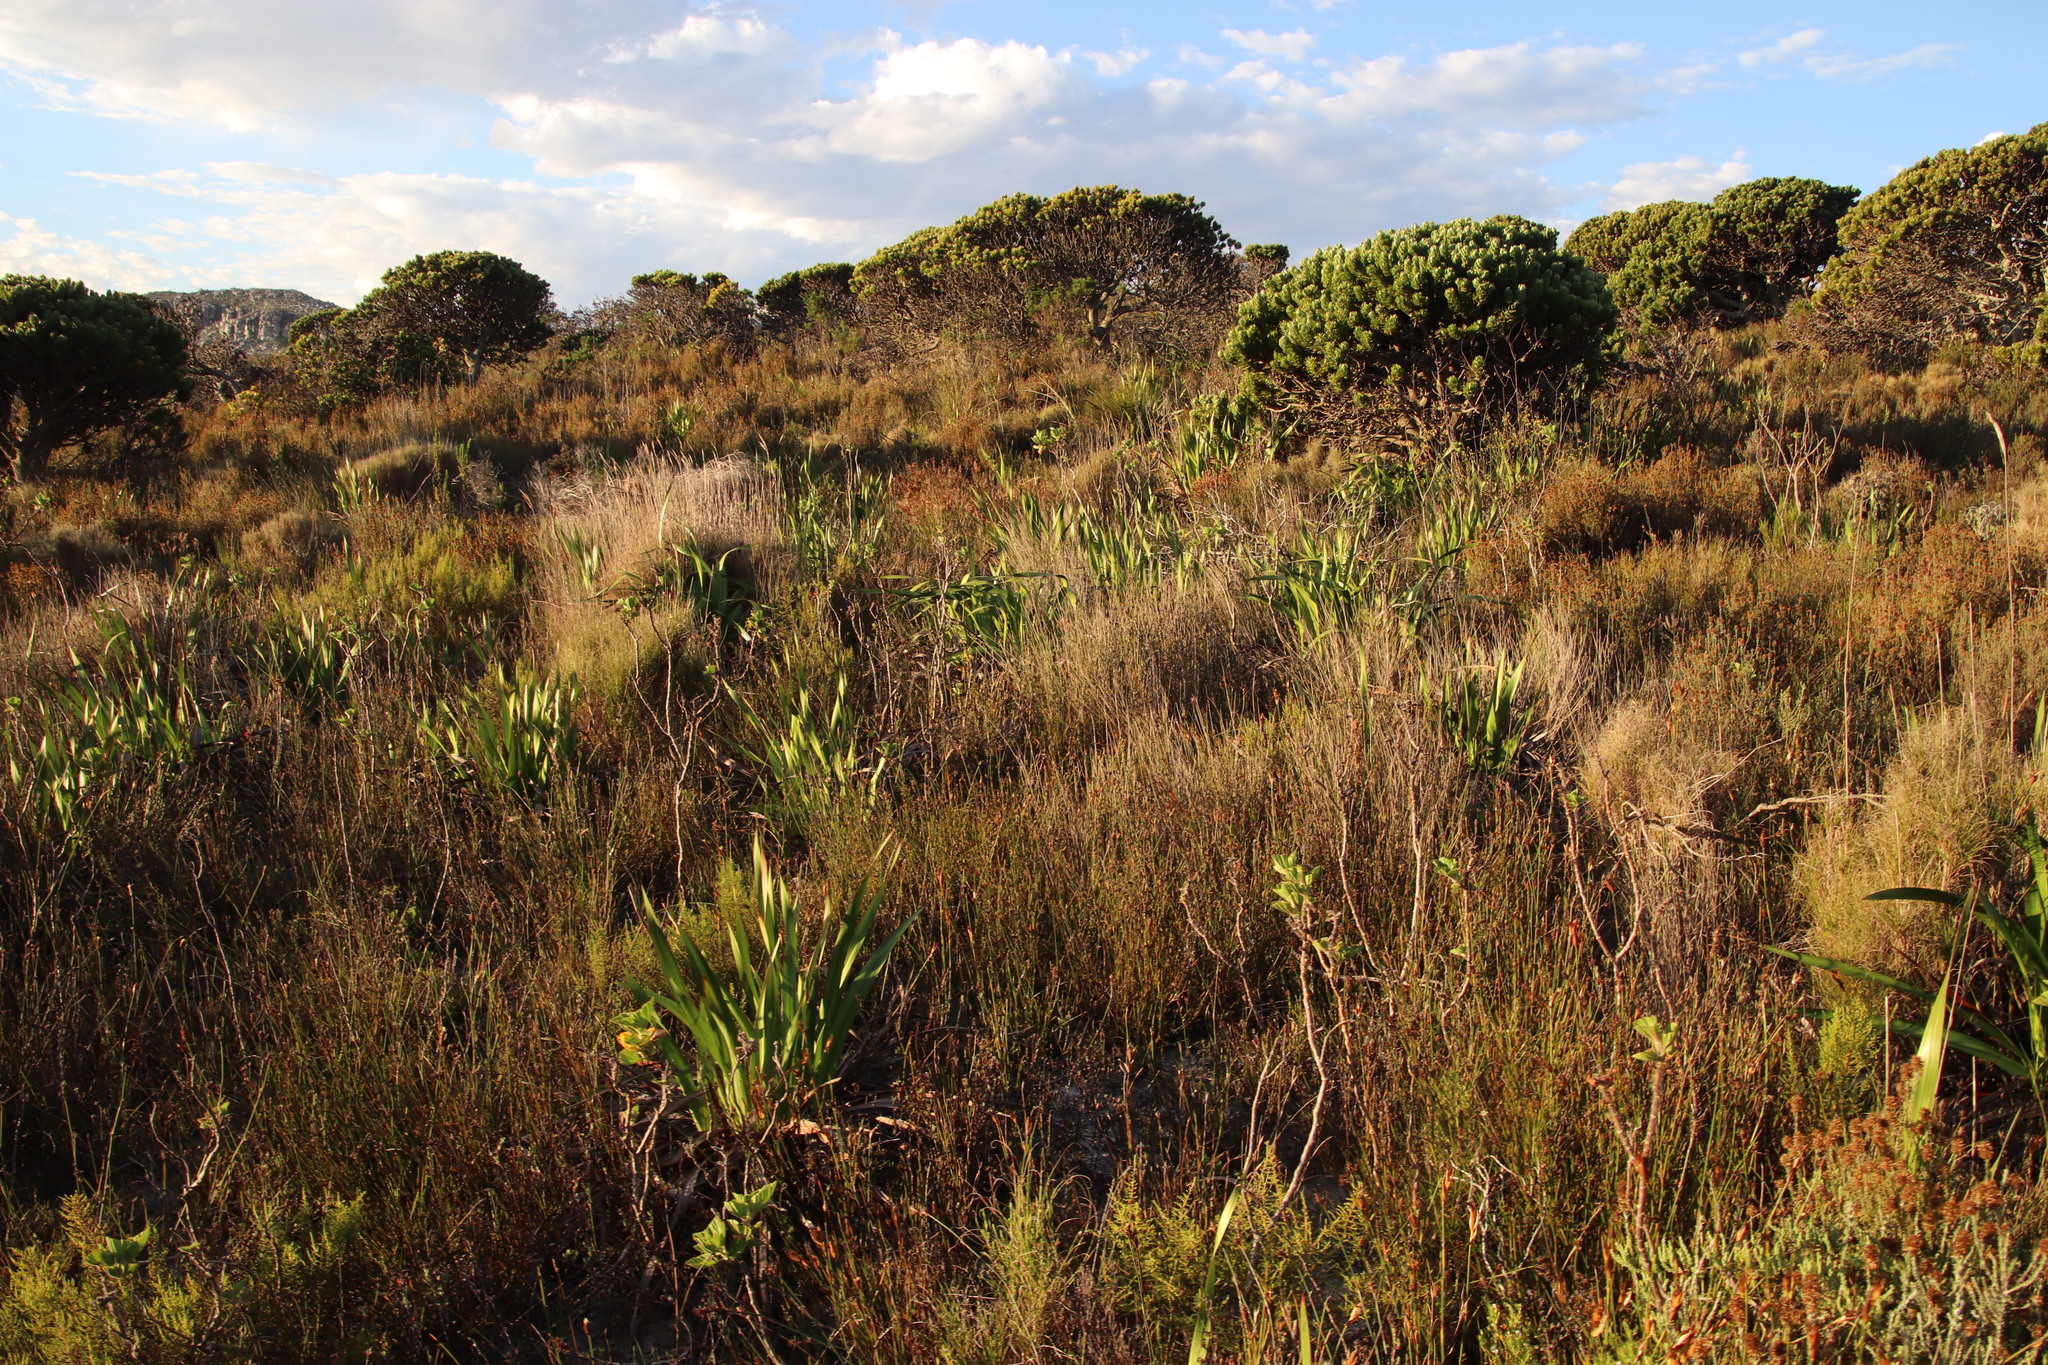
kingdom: Plantae
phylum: Tracheophyta
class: Liliopsida
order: Asparagales
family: Iridaceae
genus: Watsonia
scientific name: Watsonia borbonica
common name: Bugle-lily
